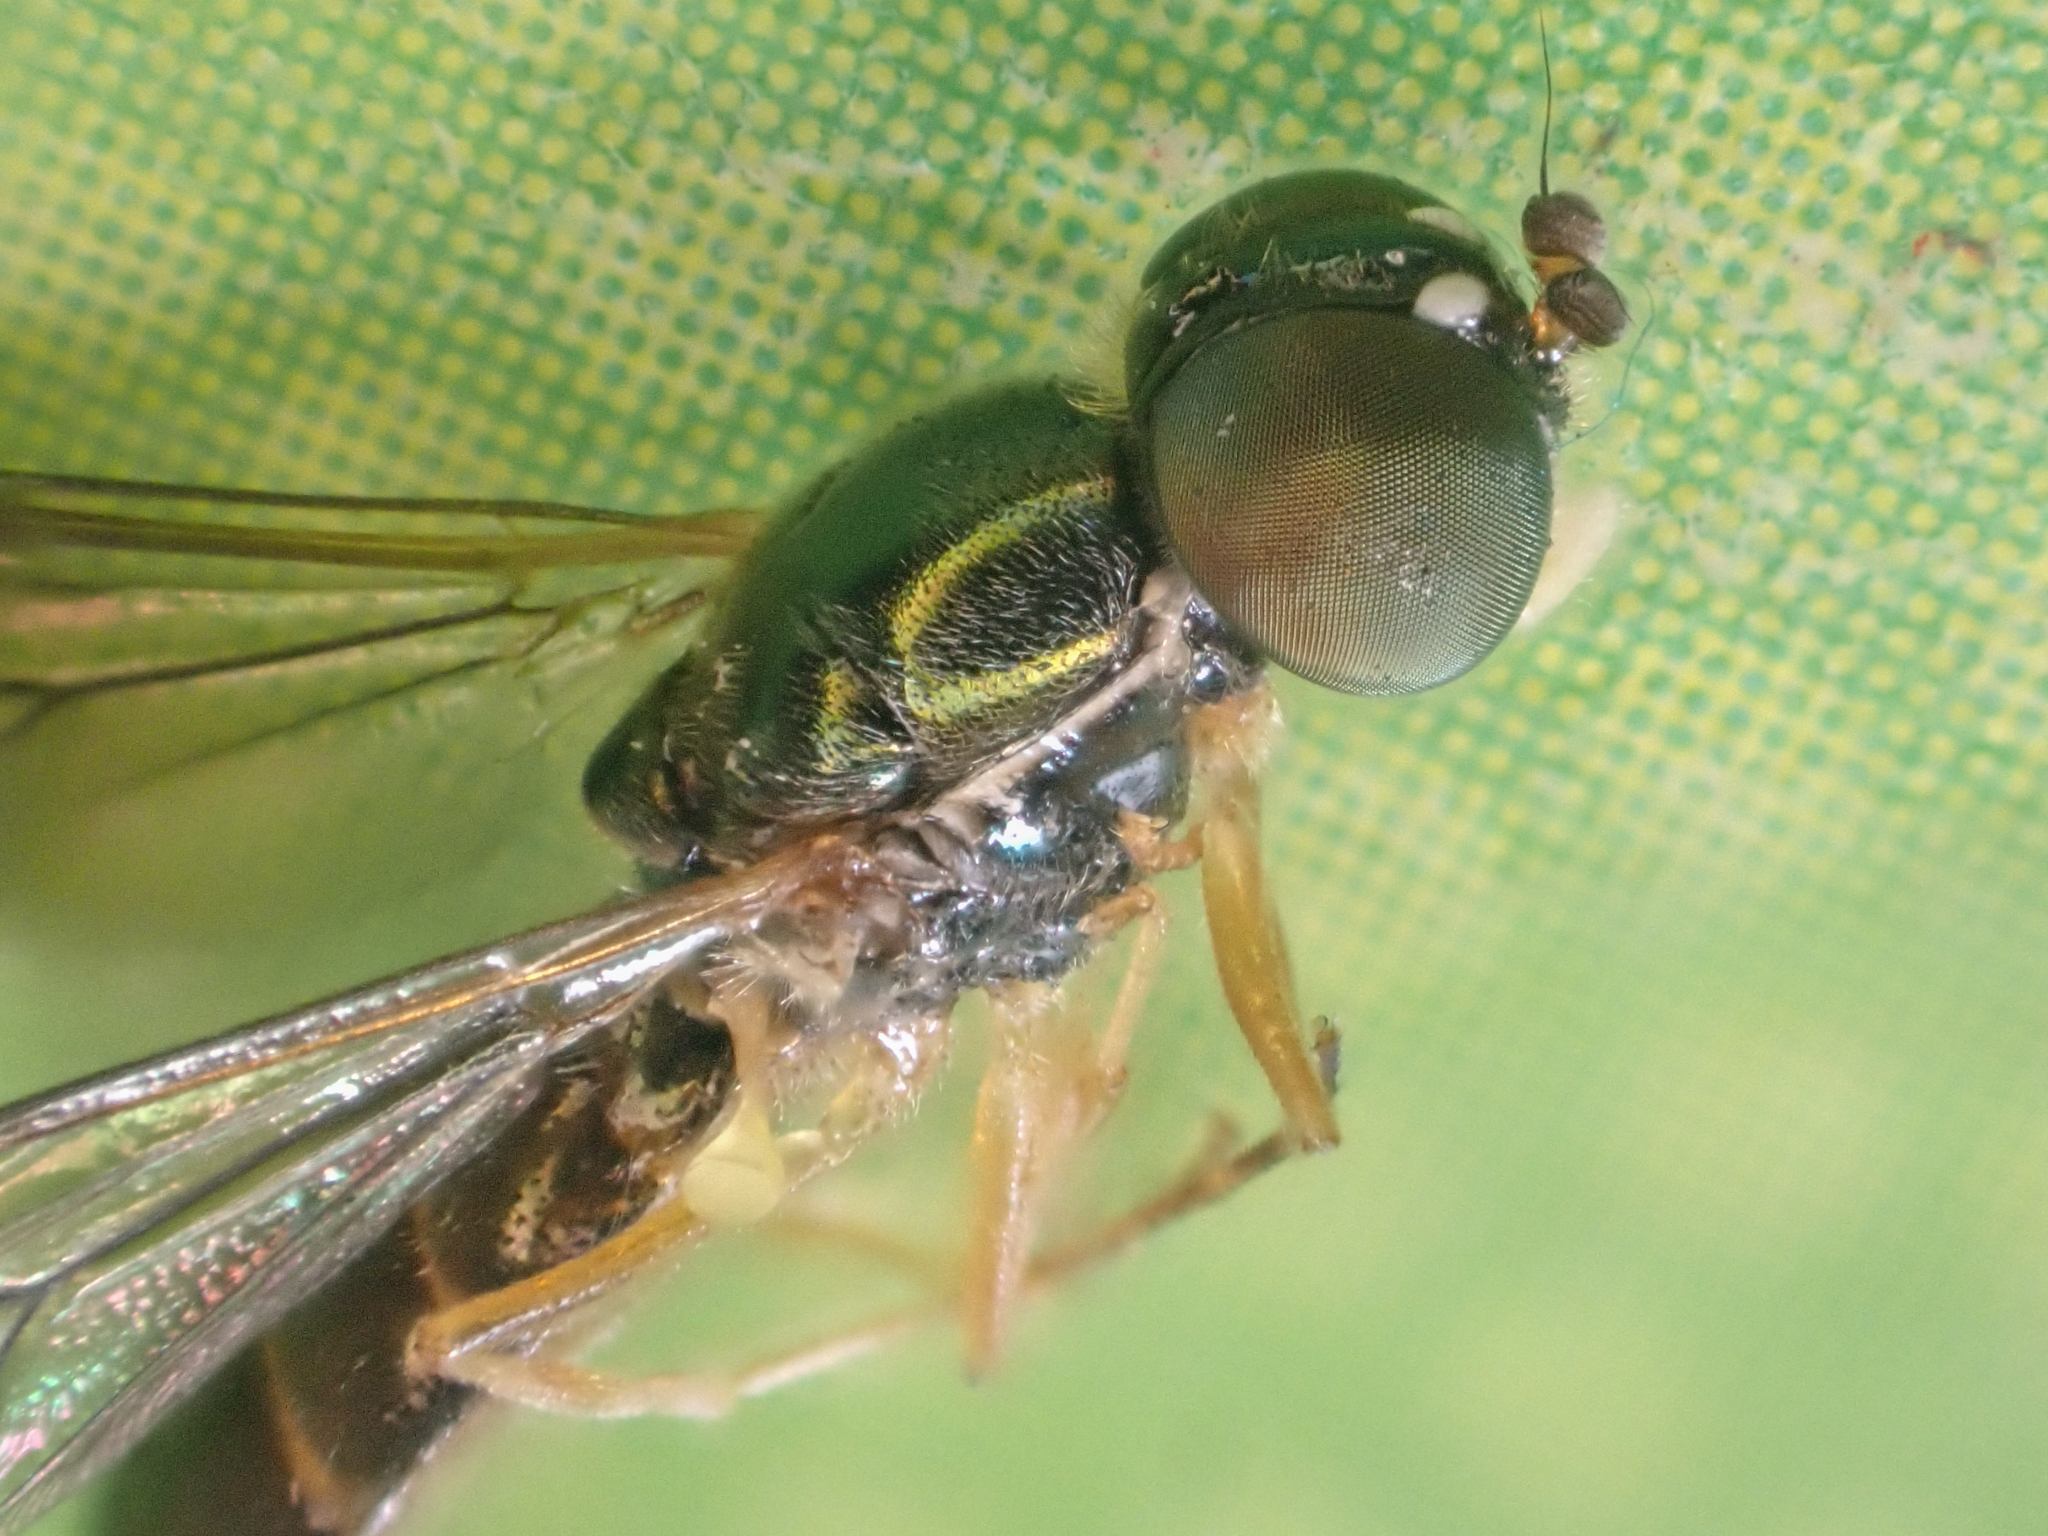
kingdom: Animalia
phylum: Arthropoda
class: Insecta
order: Diptera
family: Stratiomyidae
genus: Sargus
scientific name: Sargus decorus
